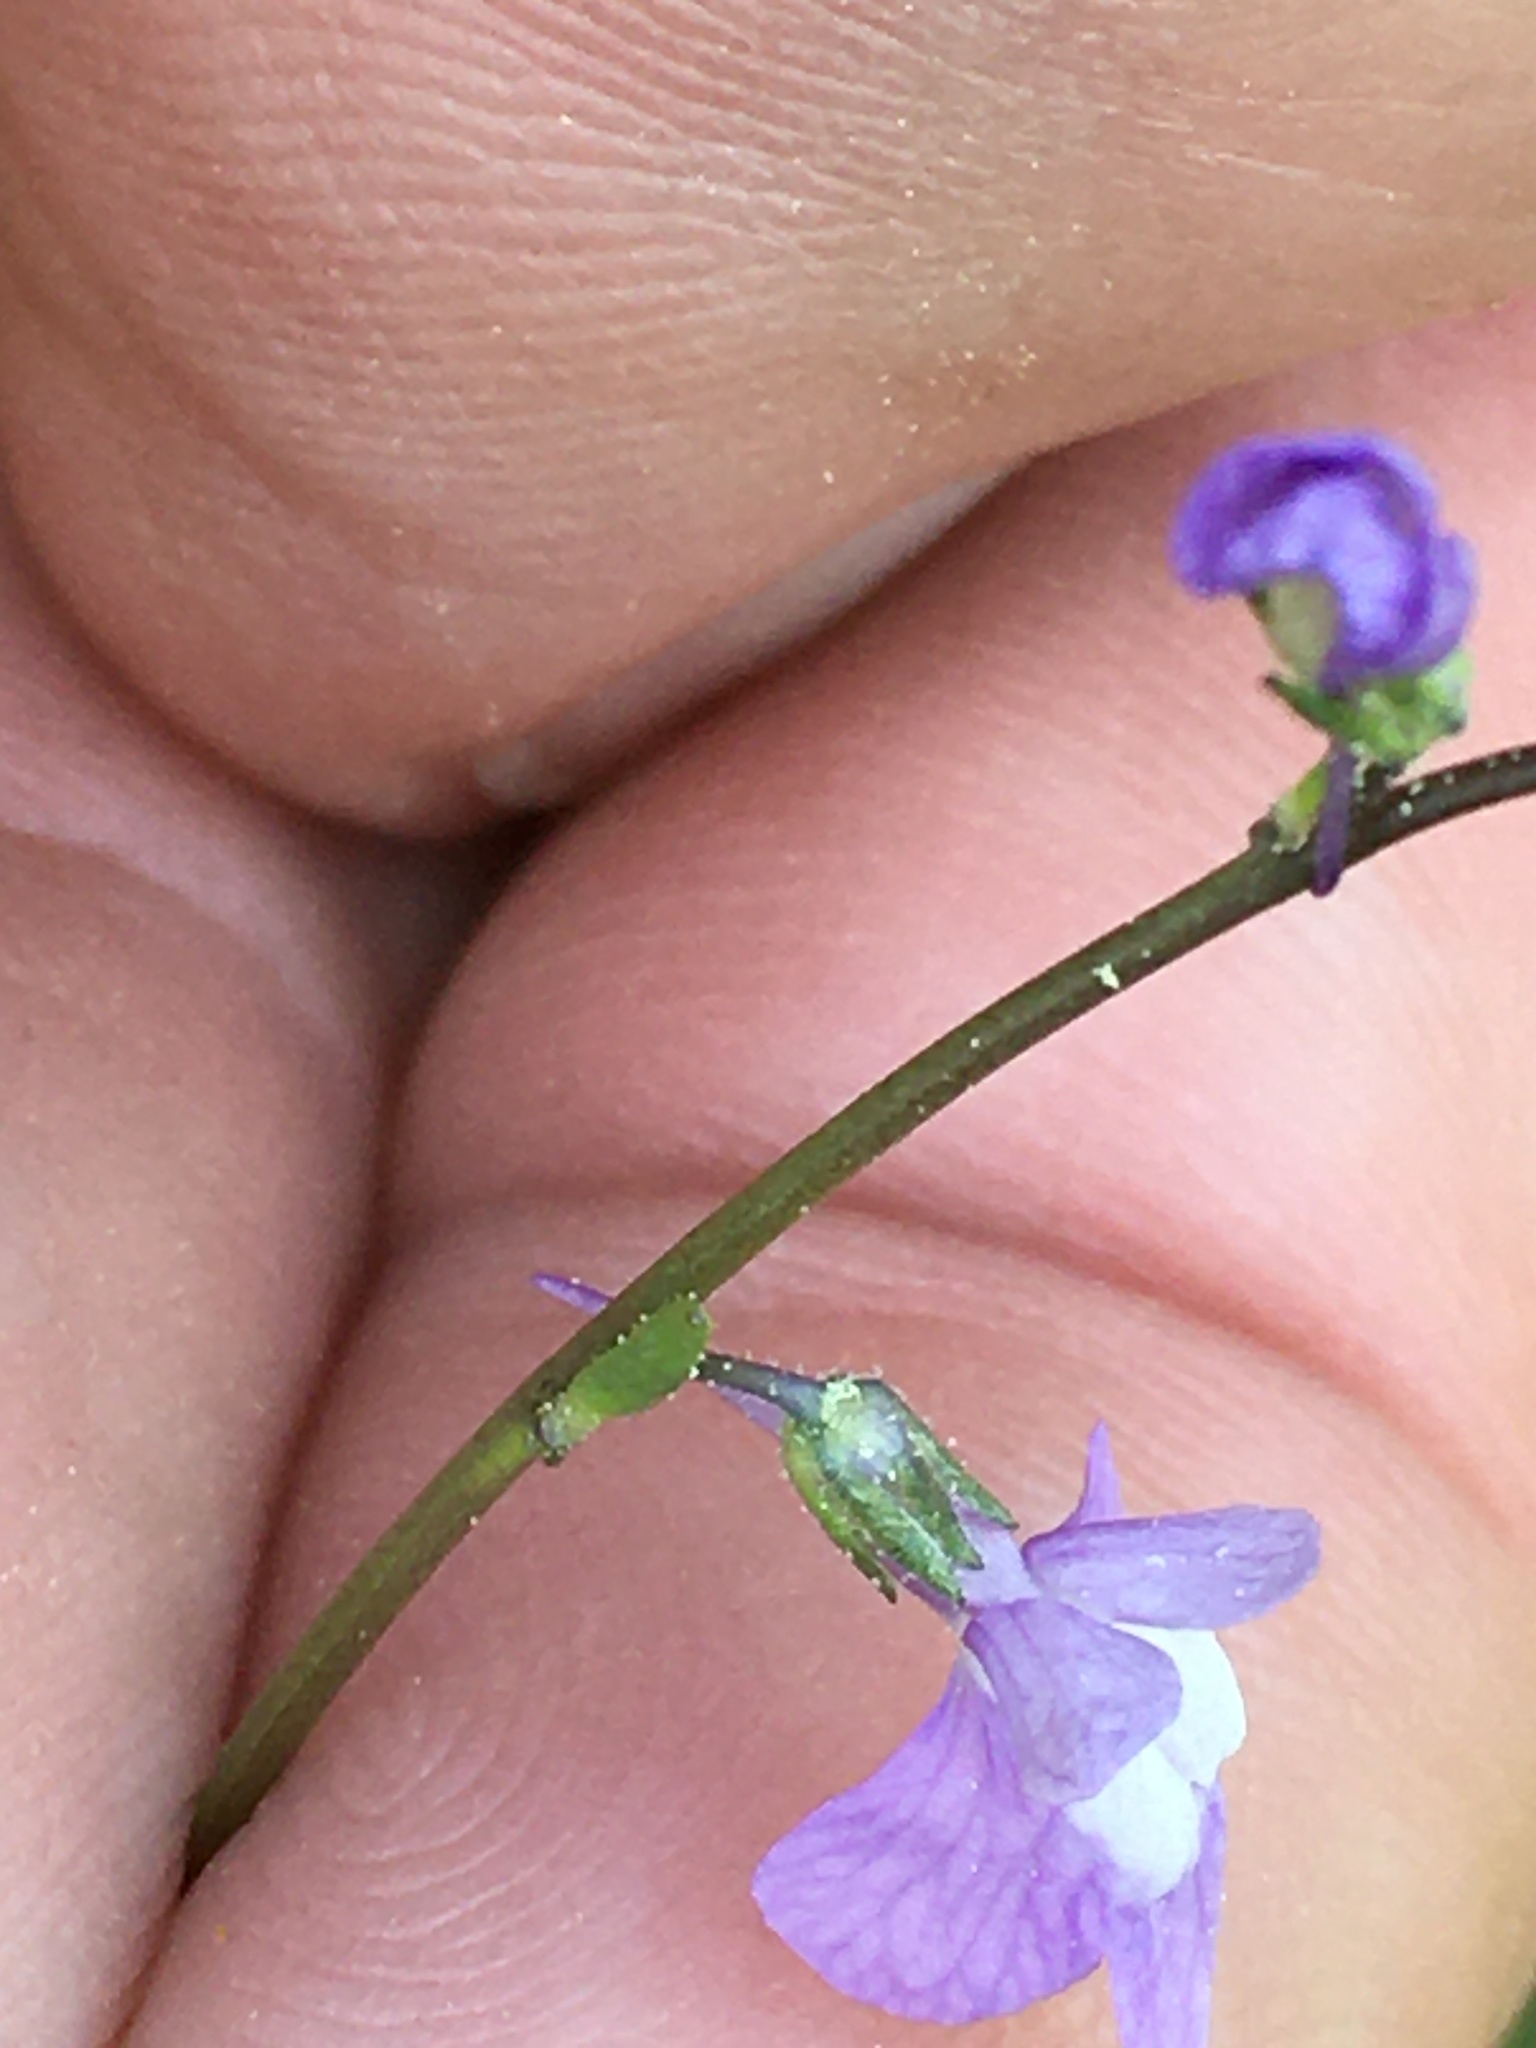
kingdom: Plantae
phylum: Tracheophyta
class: Magnoliopsida
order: Lamiales
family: Plantaginaceae
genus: Nuttallanthus
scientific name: Nuttallanthus canadensis
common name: Blue toadflax
